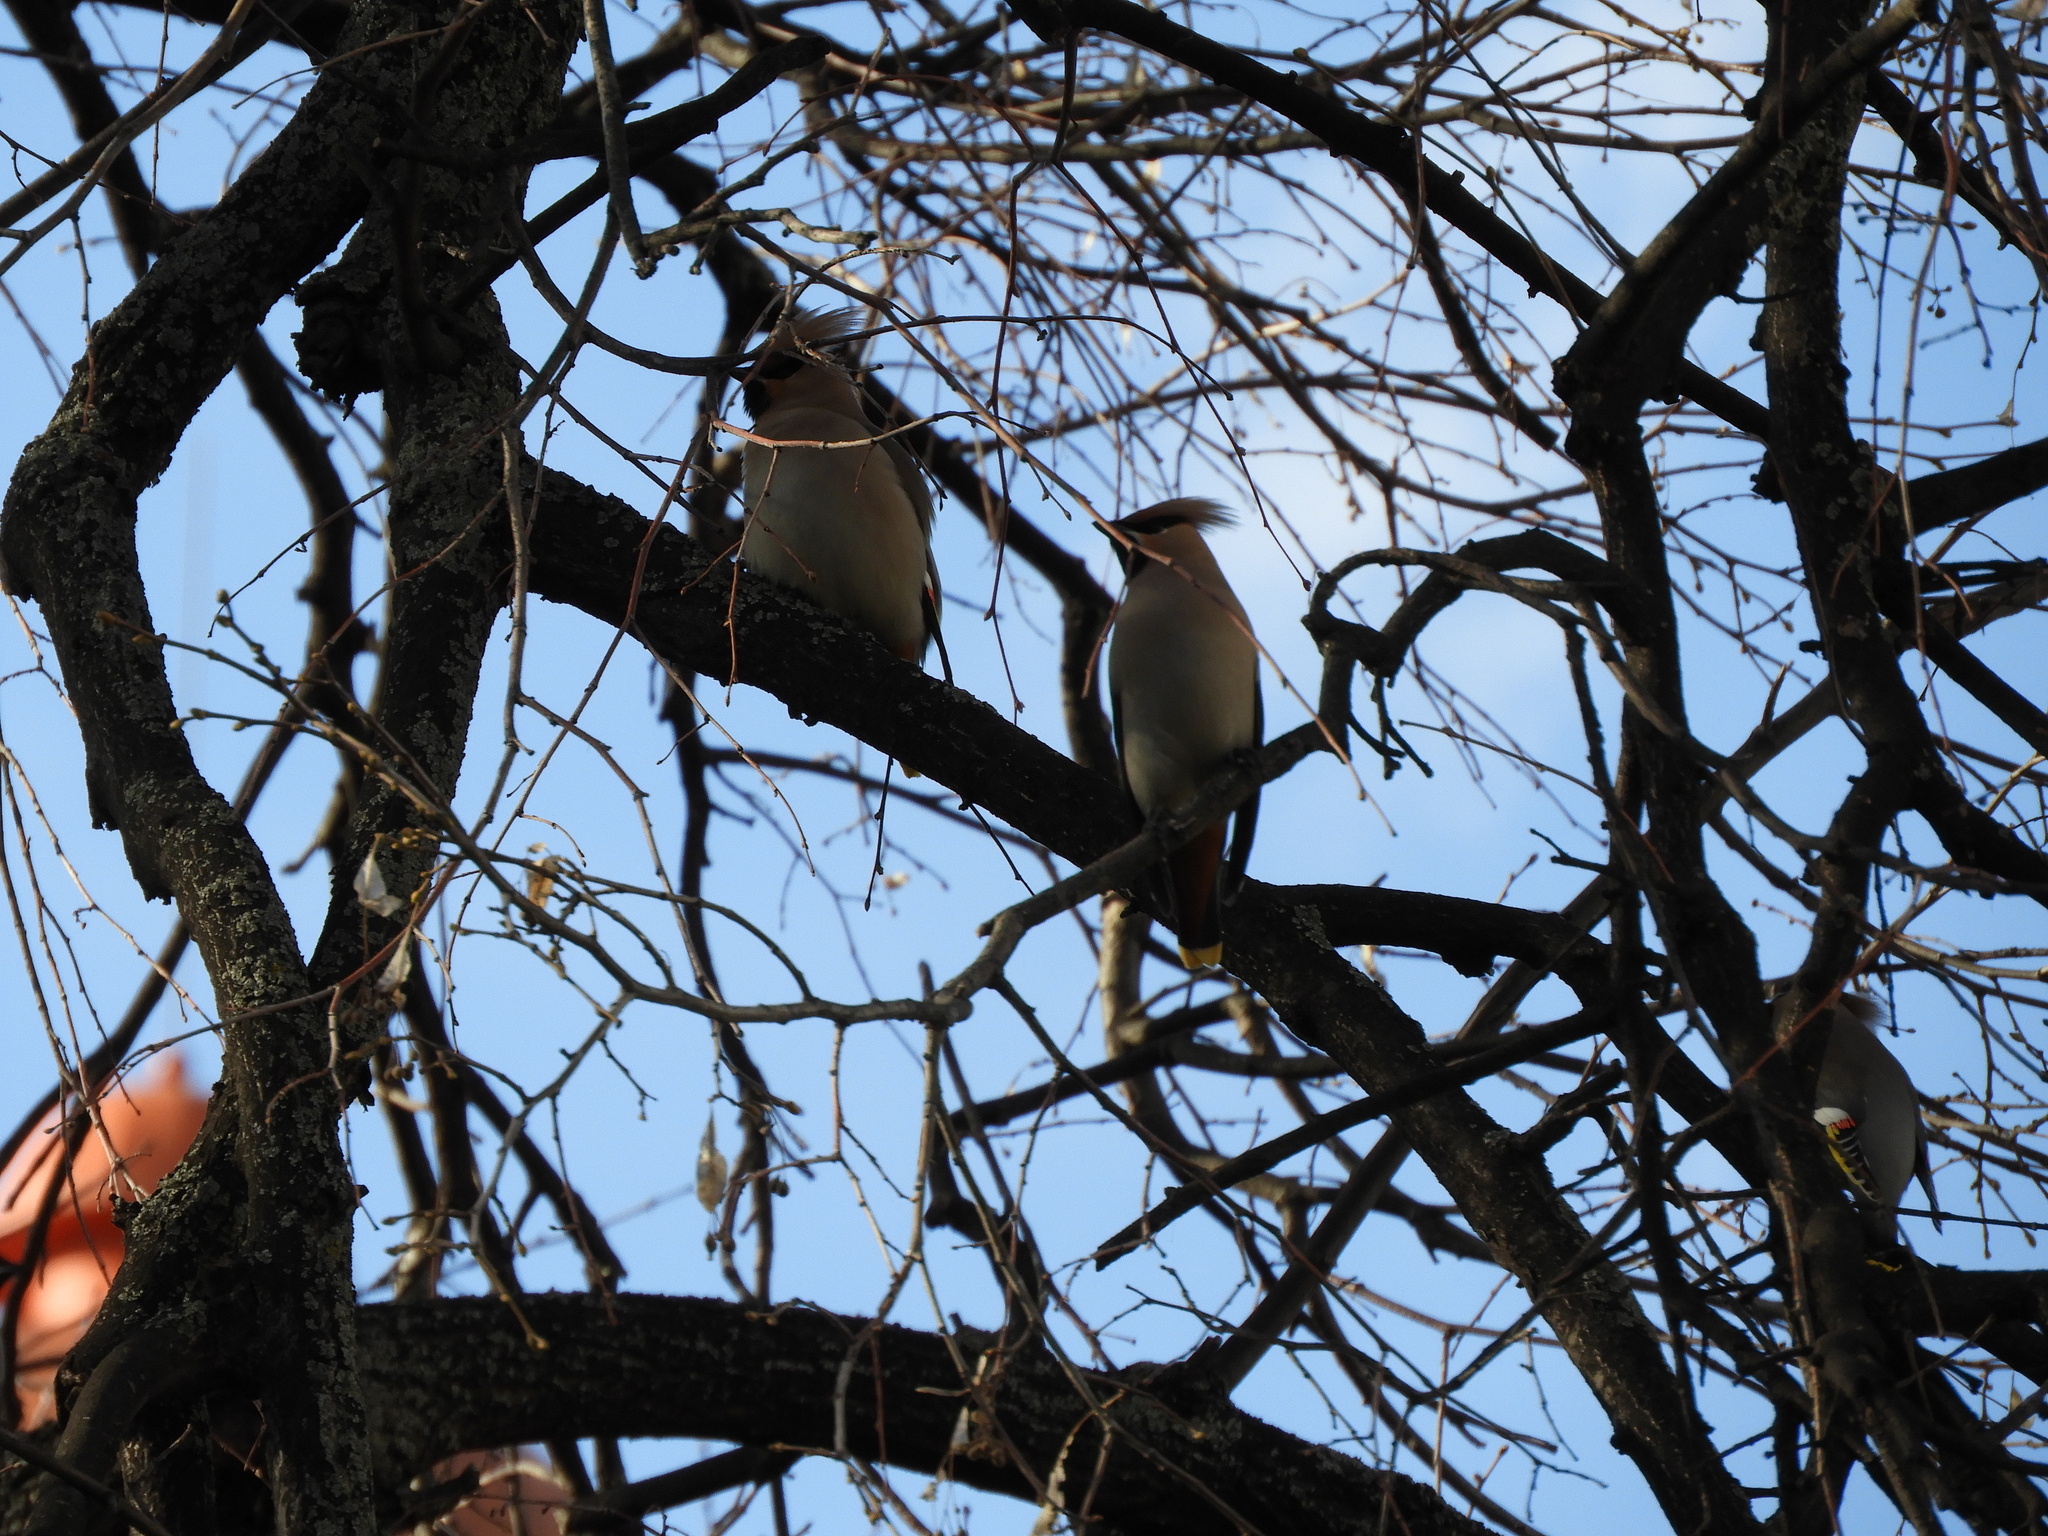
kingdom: Animalia
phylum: Chordata
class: Aves
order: Passeriformes
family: Bombycillidae
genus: Bombycilla
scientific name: Bombycilla garrulus
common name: Bohemian waxwing
